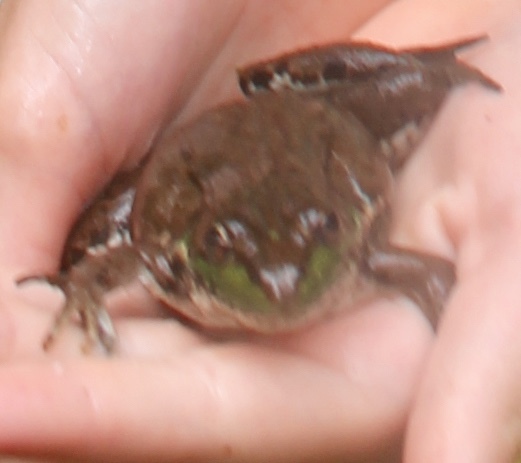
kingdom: Animalia
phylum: Chordata
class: Amphibia
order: Anura
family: Ranidae
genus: Lithobates
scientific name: Lithobates clamitans
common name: Green frog
